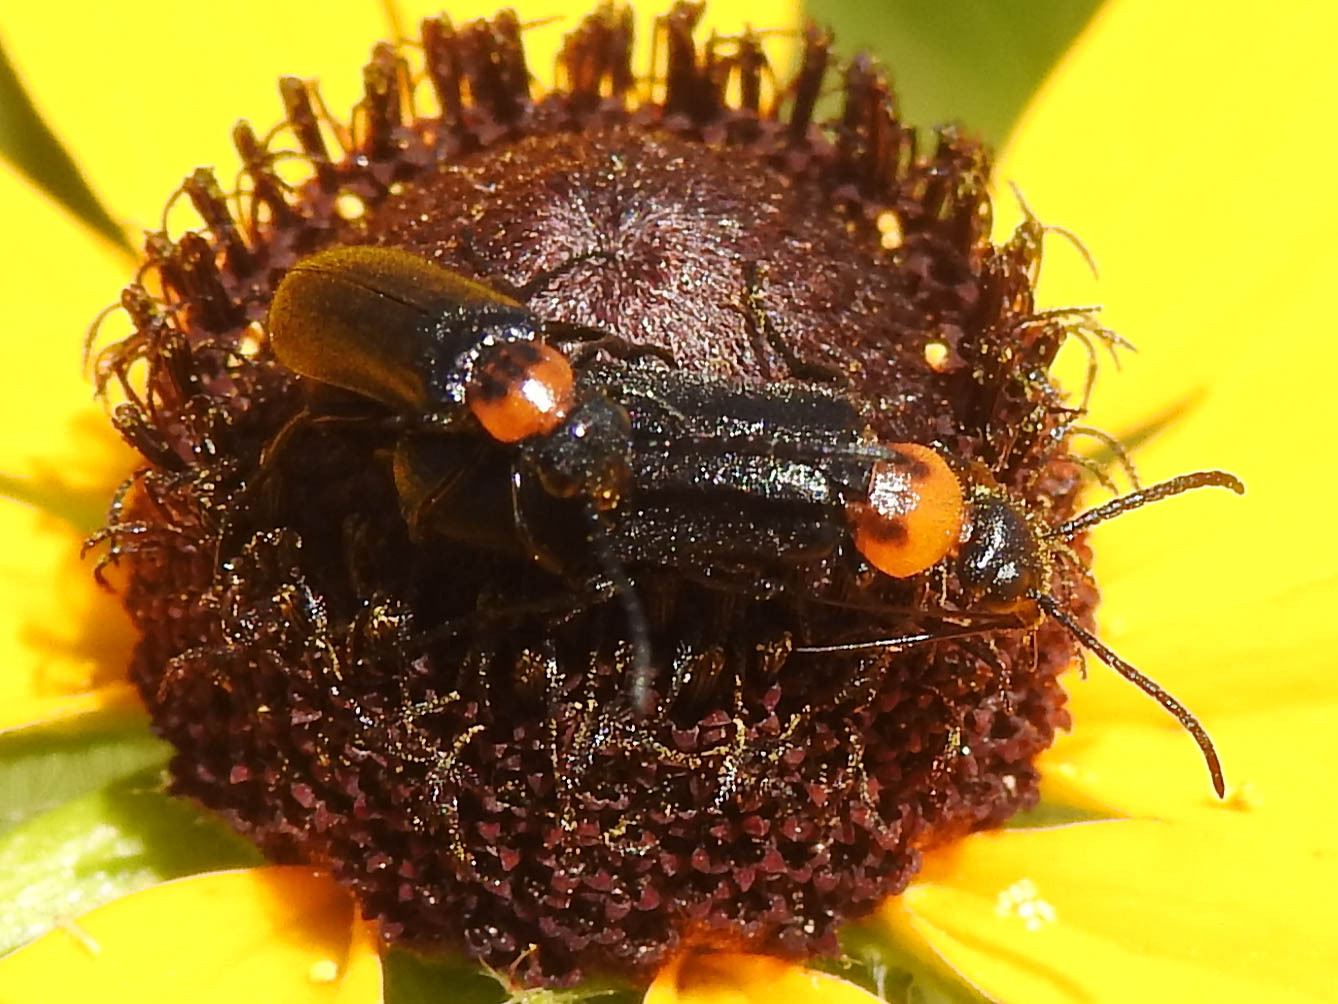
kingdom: Animalia
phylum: Arthropoda
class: Insecta
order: Coleoptera
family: Meloidae
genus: Nemognatha
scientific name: Nemognatha nemorensis
